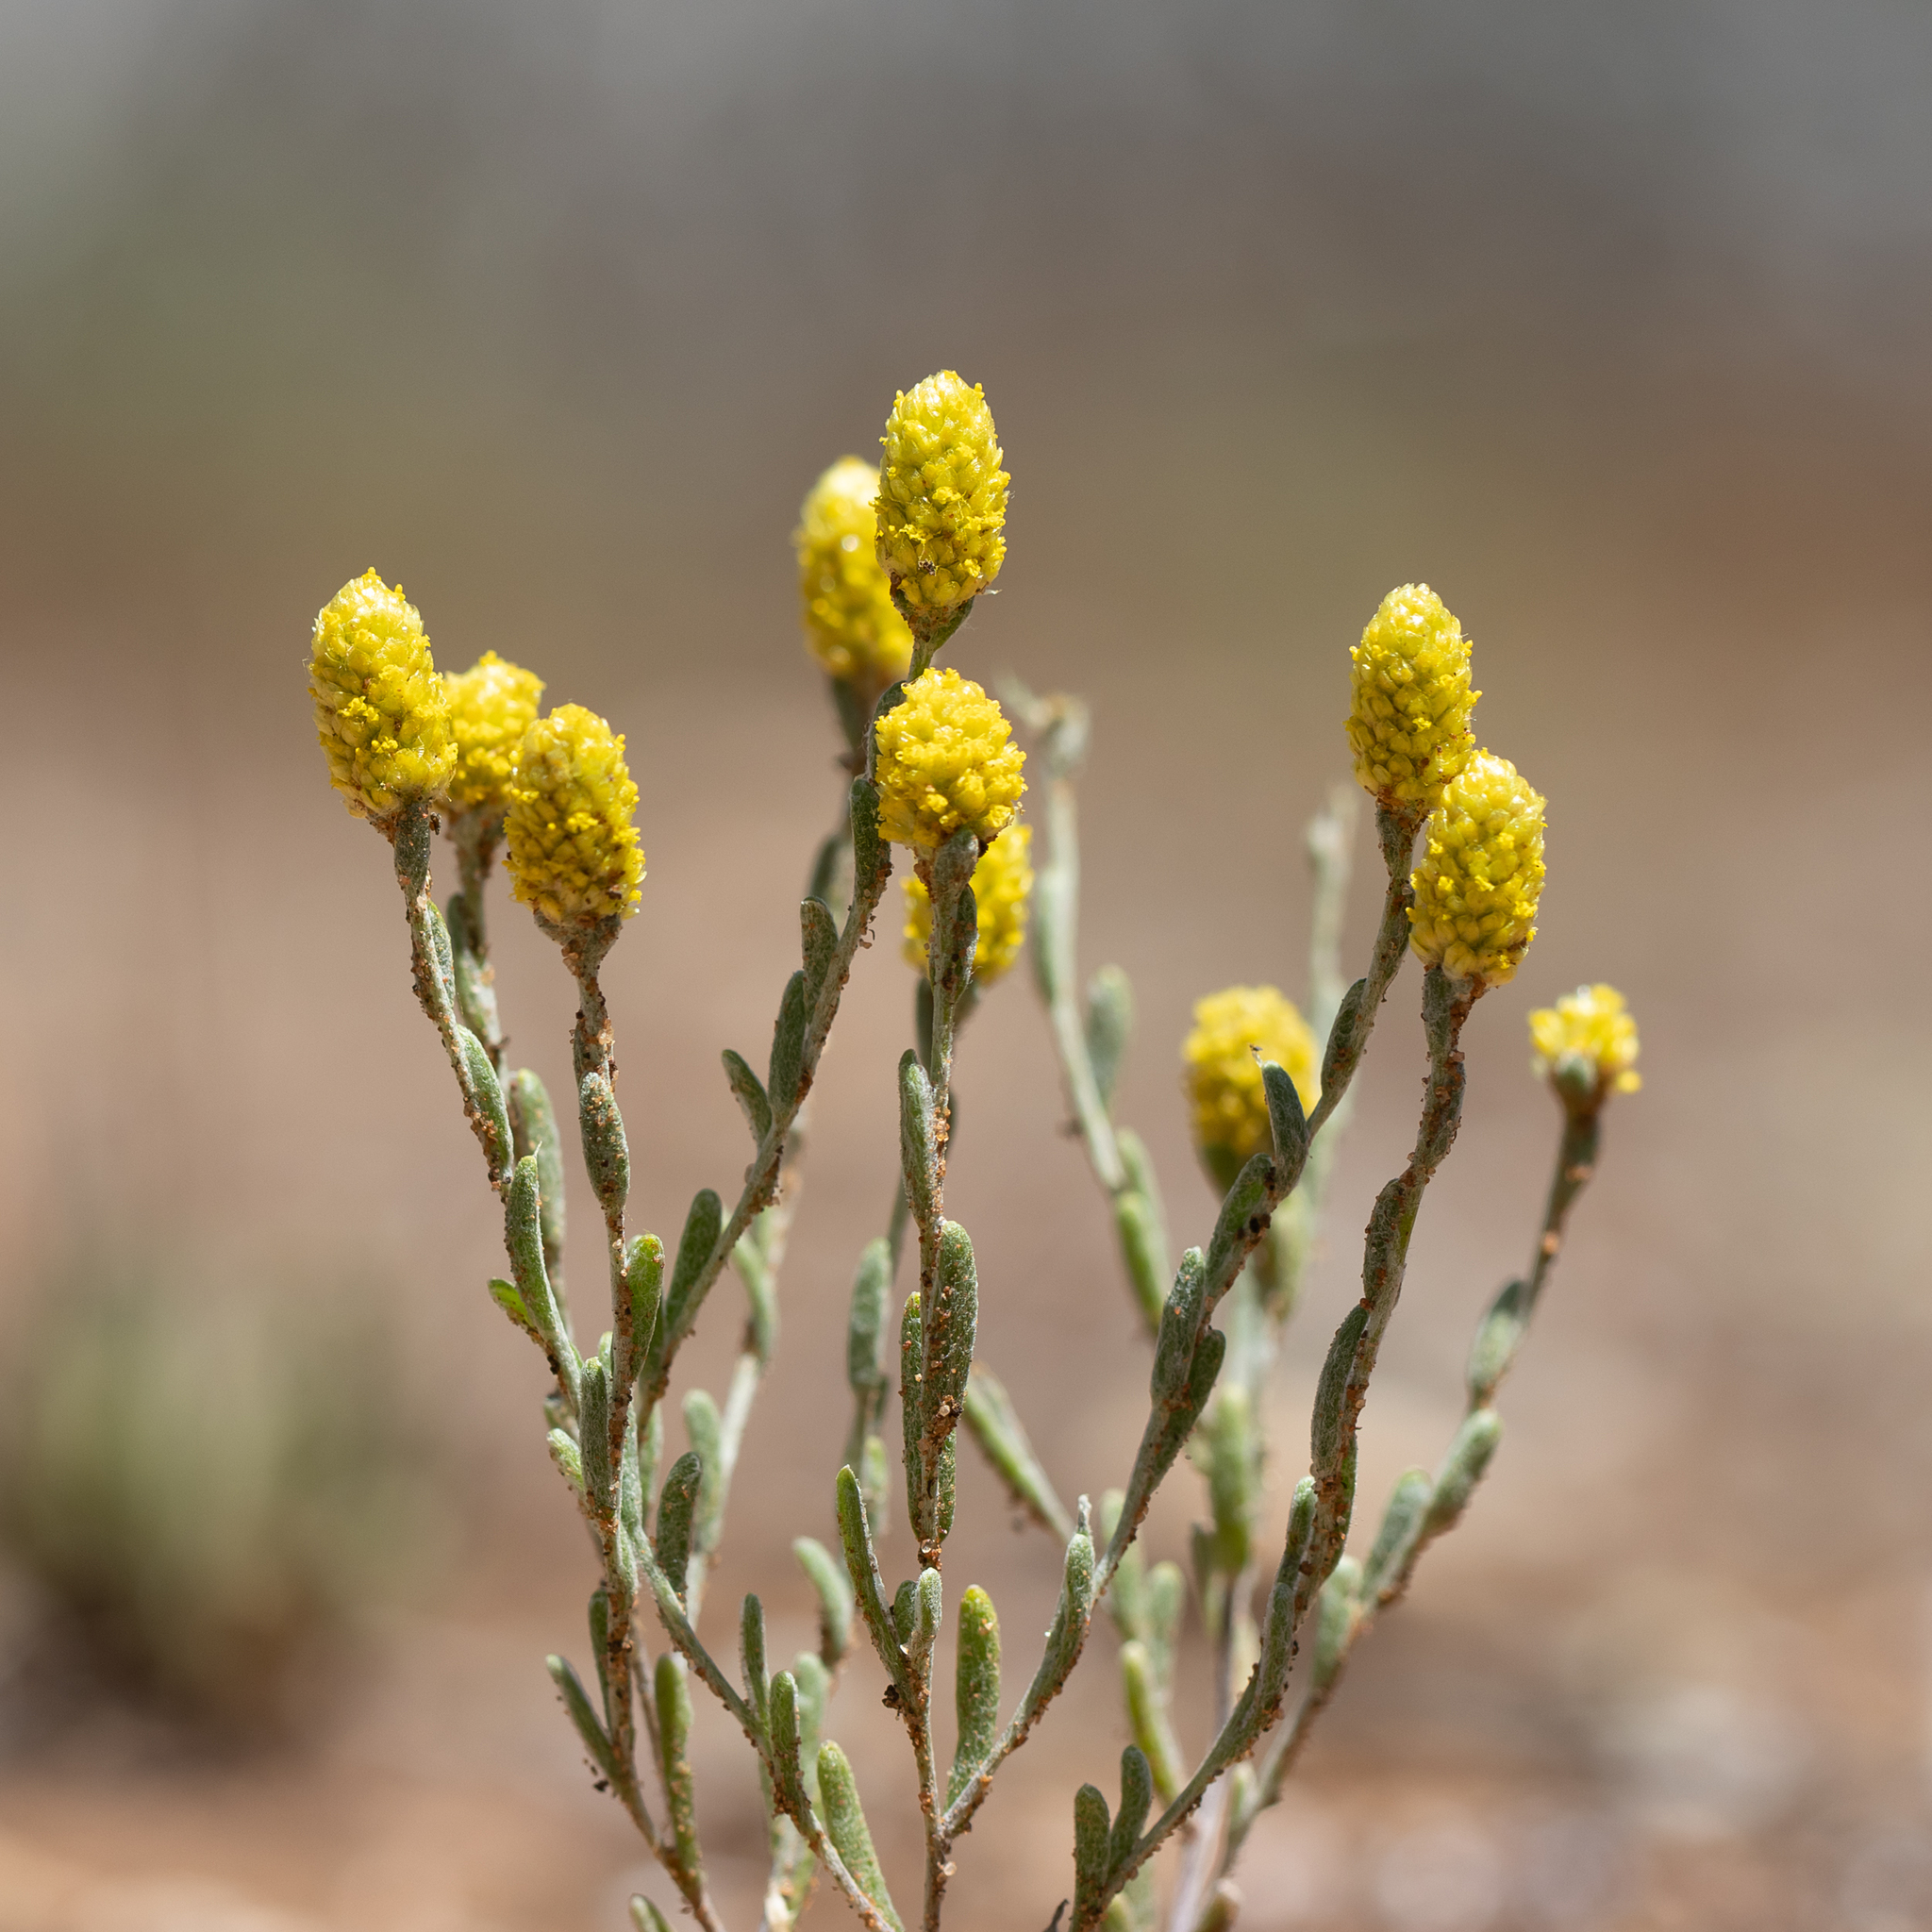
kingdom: Plantae
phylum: Tracheophyta
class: Magnoliopsida
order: Asterales
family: Asteraceae
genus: Siloxerus
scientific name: Siloxerus tomentosus
